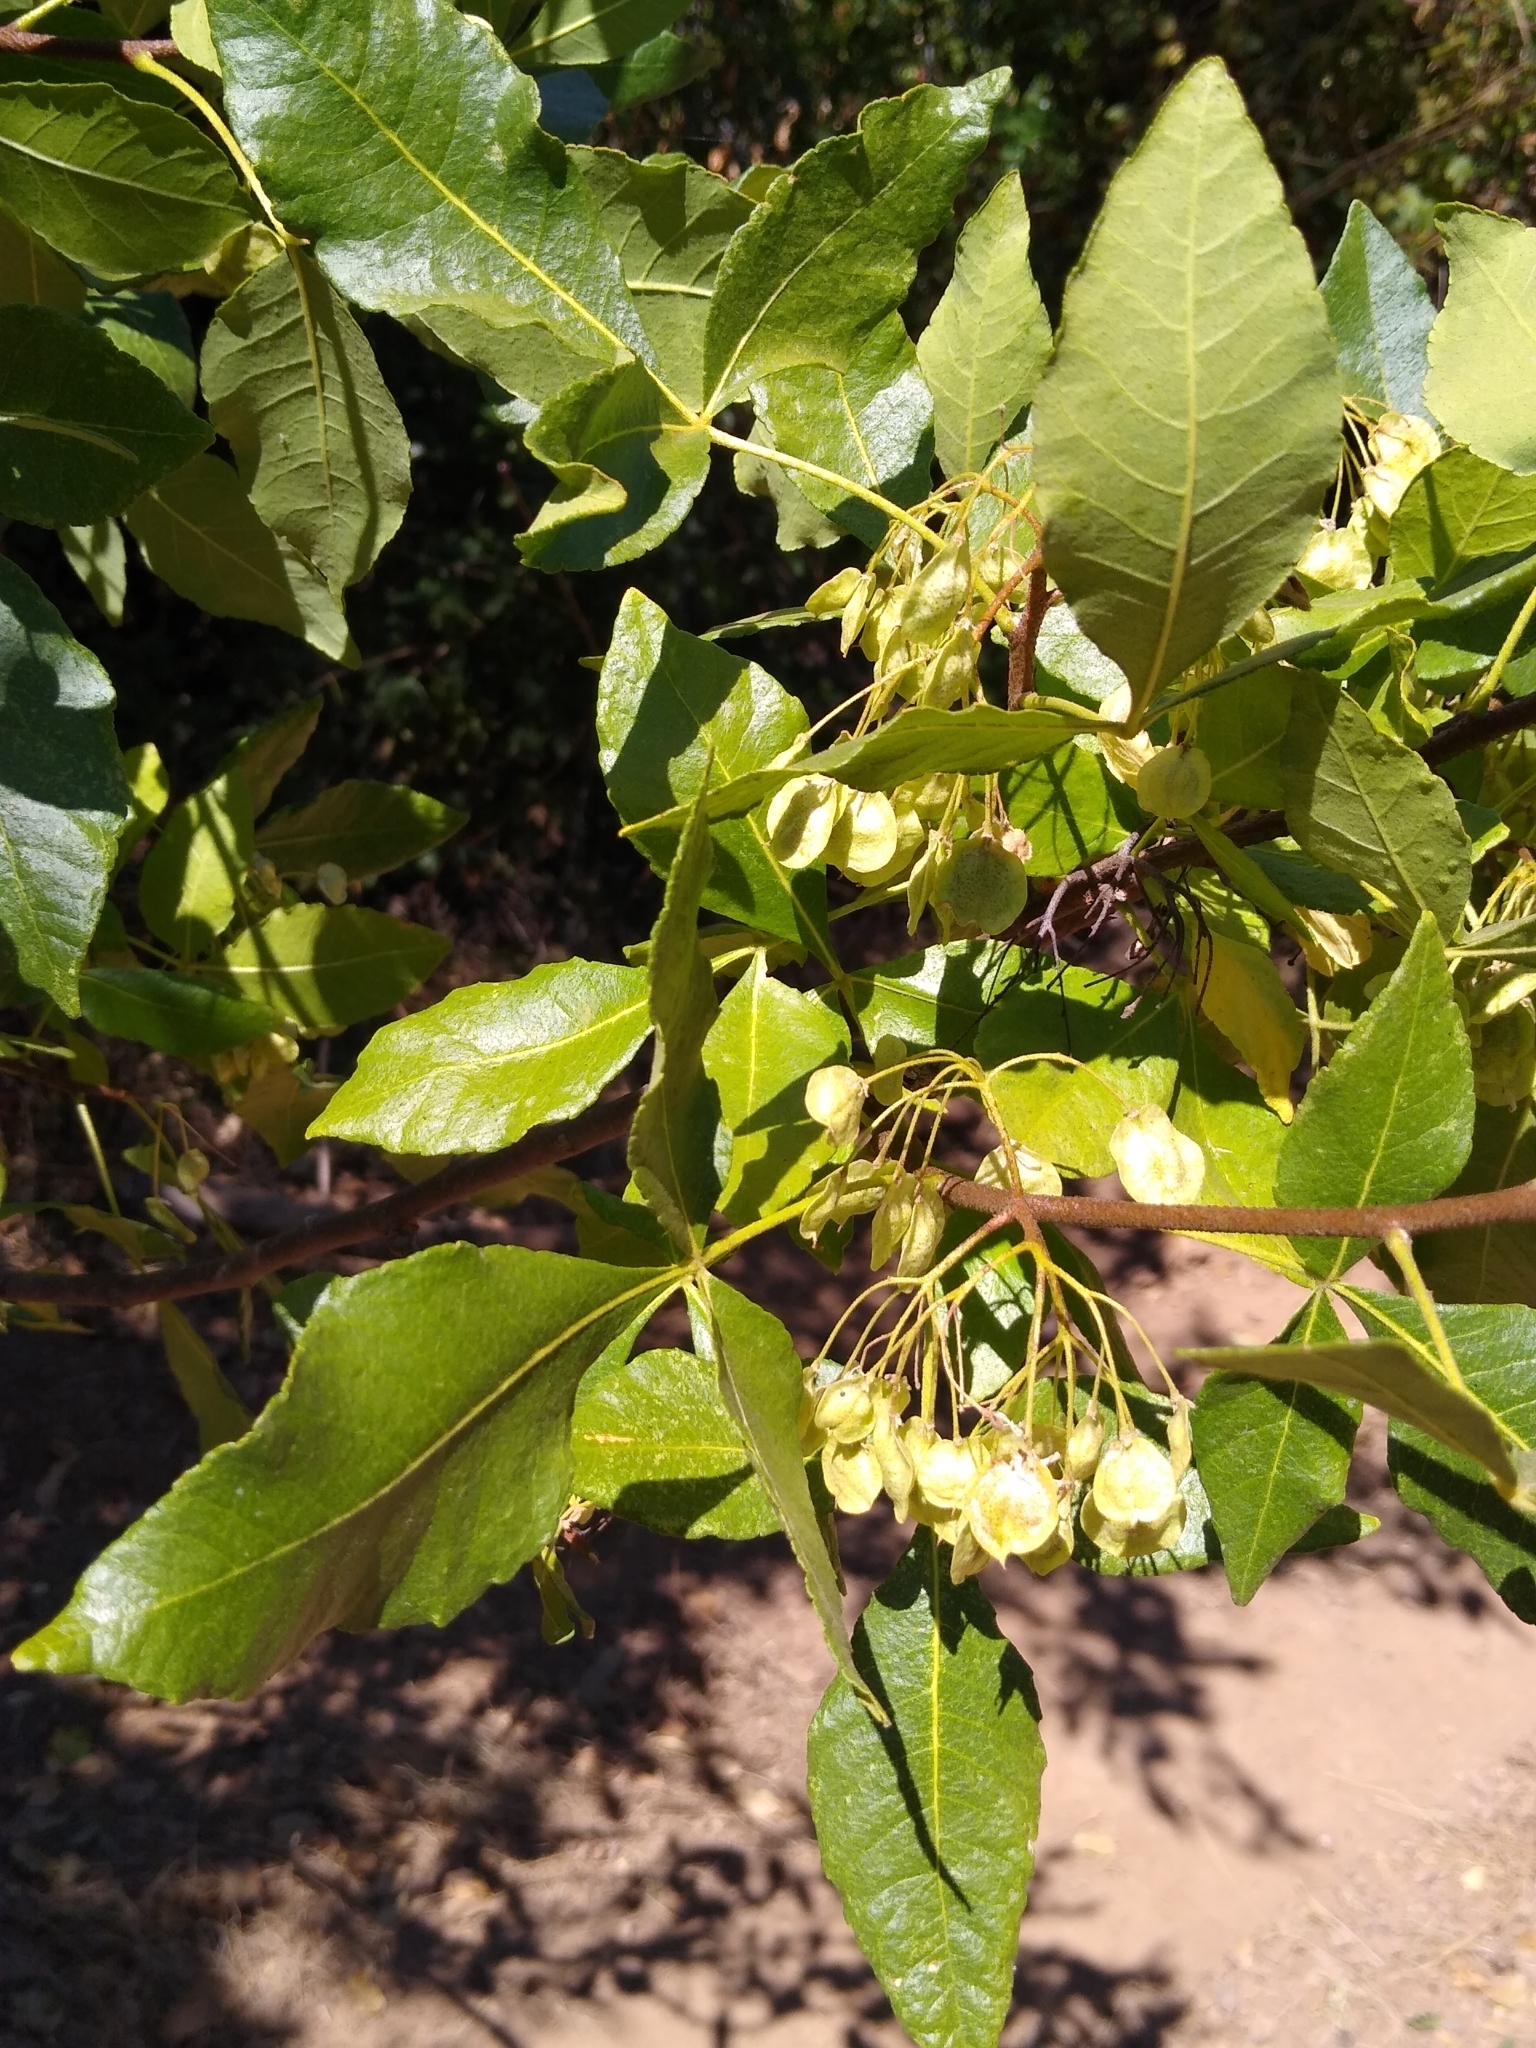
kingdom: Plantae
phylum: Tracheophyta
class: Magnoliopsida
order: Sapindales
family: Rutaceae
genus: Ptelea
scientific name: Ptelea crenulata
